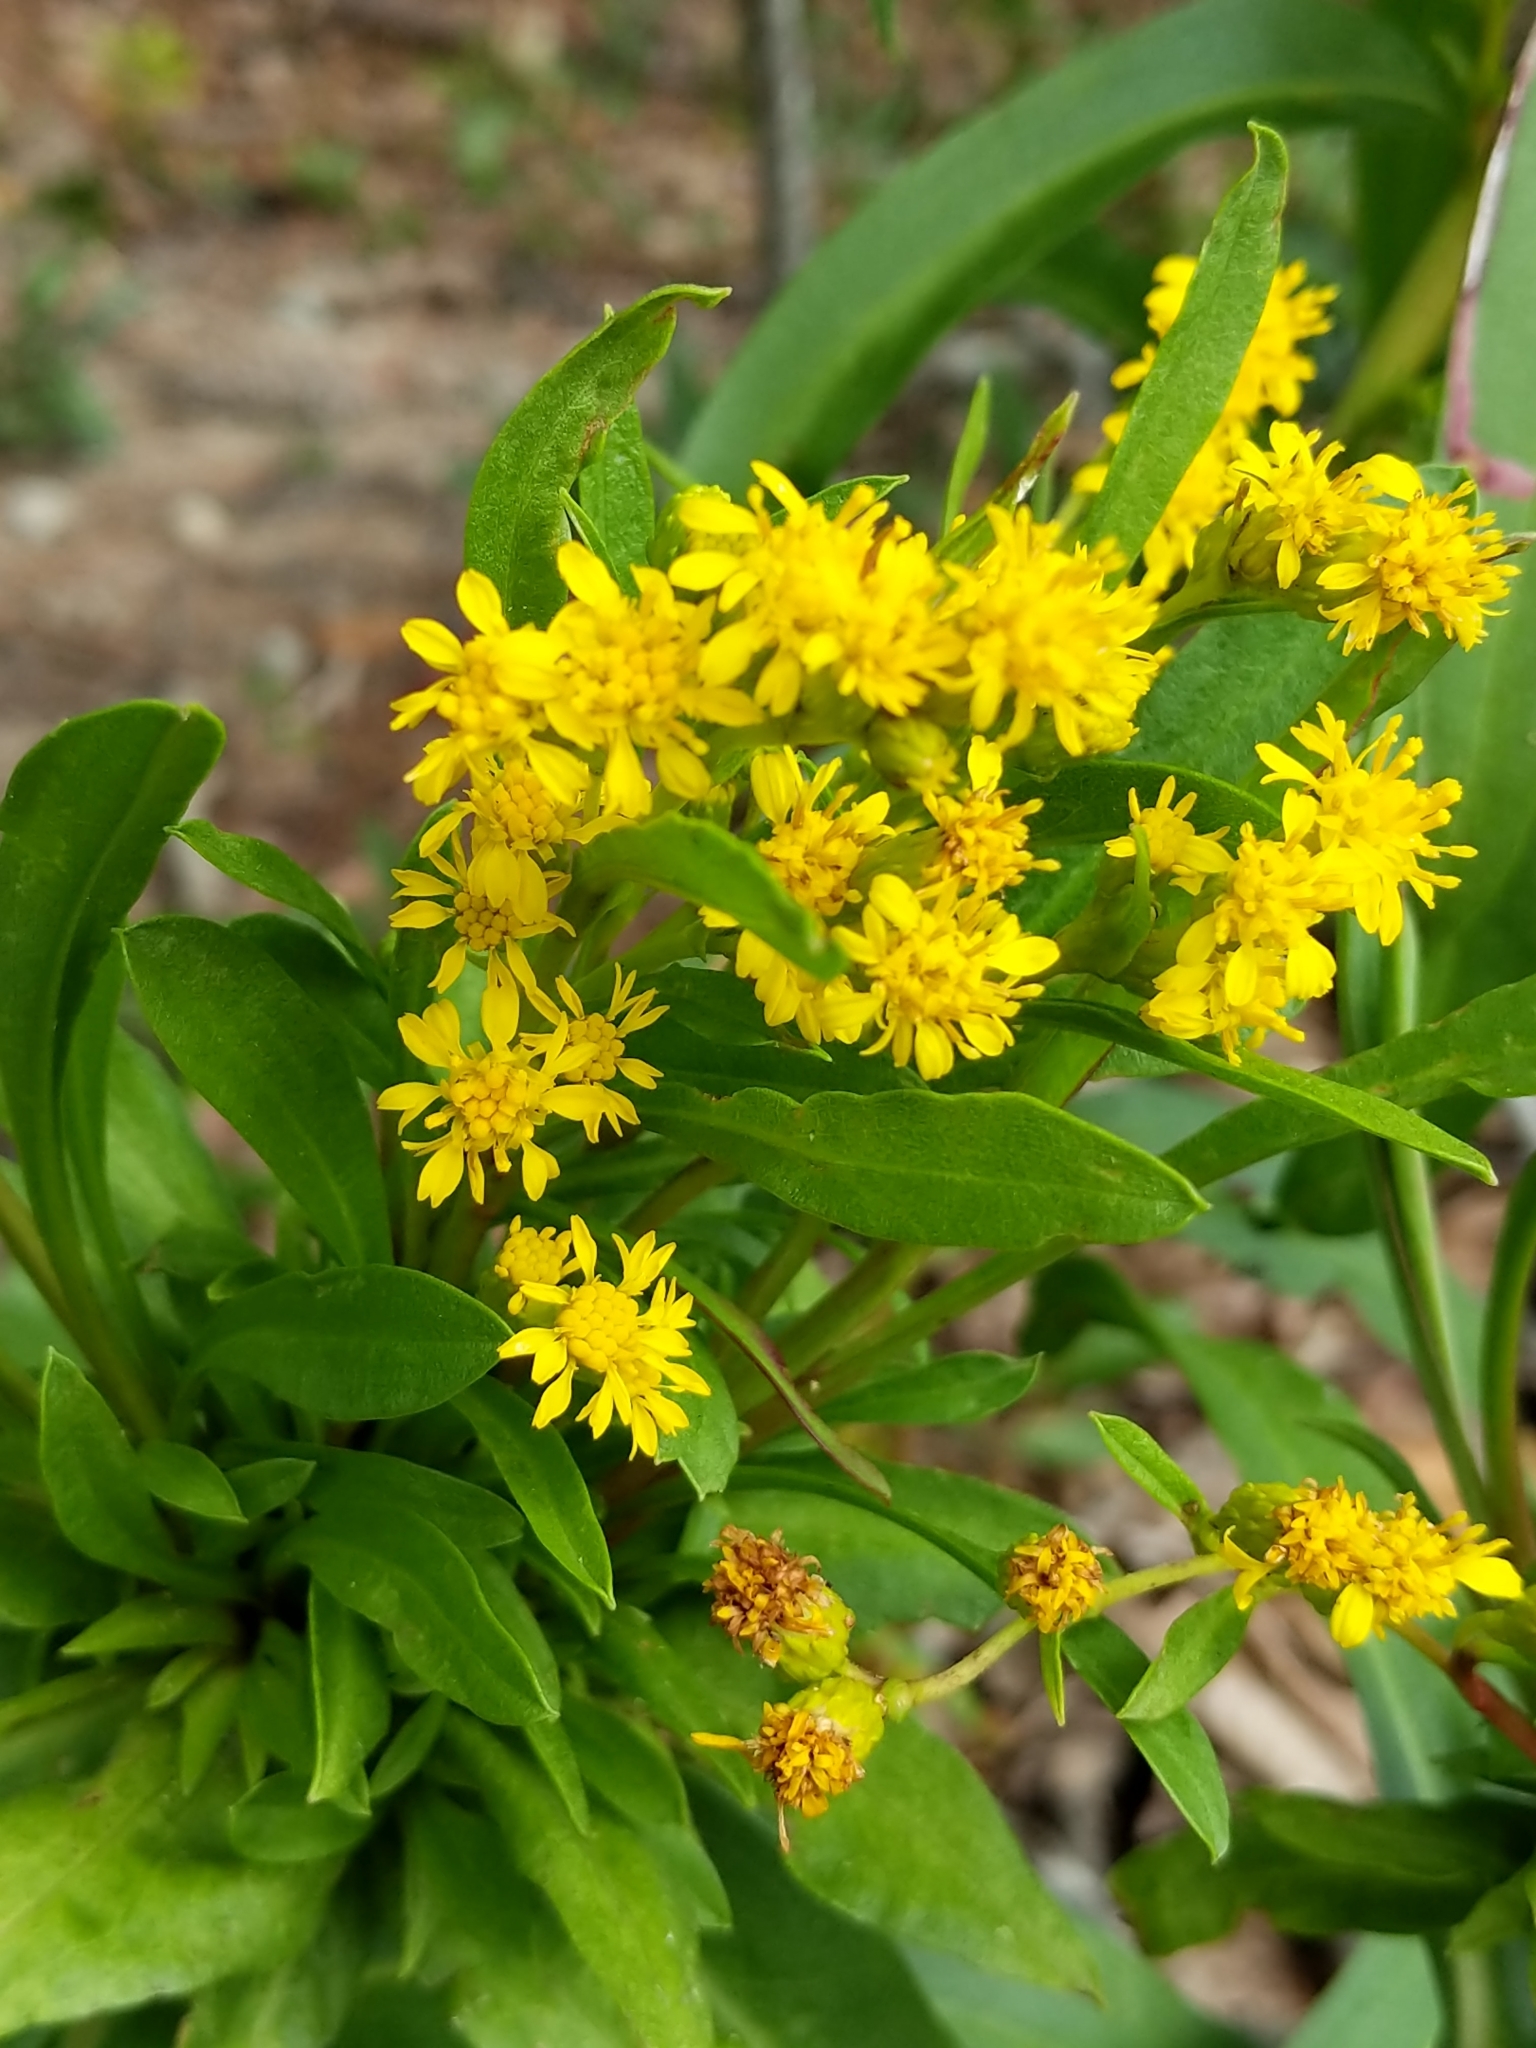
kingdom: Plantae
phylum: Tracheophyta
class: Magnoliopsida
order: Asterales
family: Asteraceae
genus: Solidago
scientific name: Solidago sempervirens
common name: Salt-marsh goldenrod
